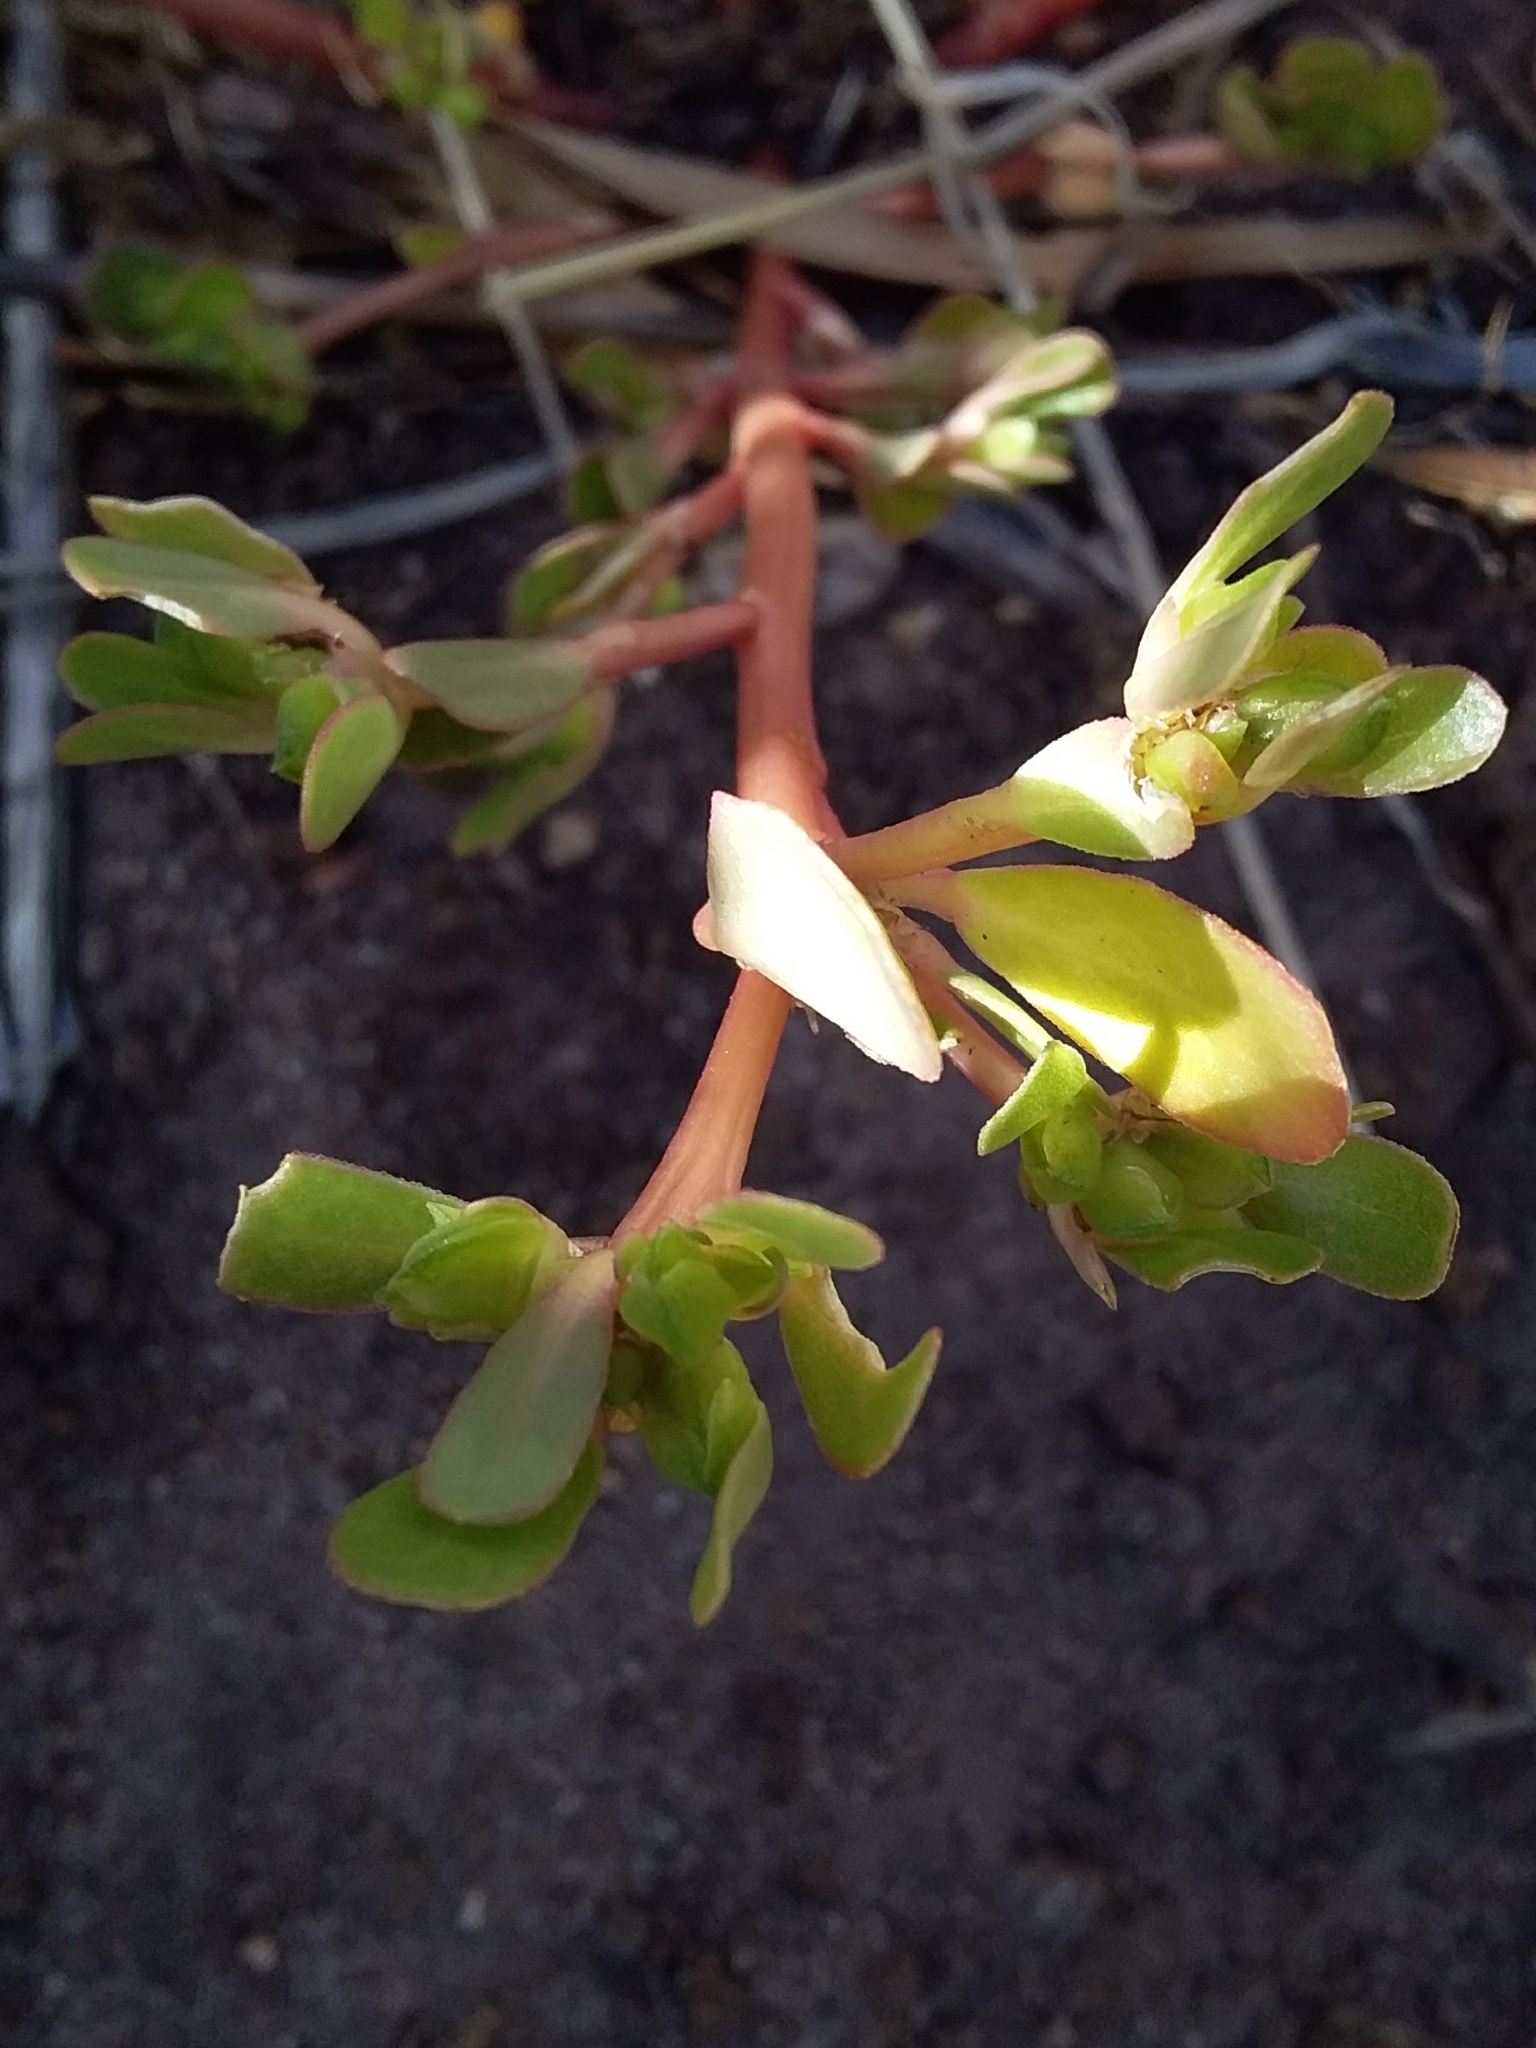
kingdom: Plantae
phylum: Tracheophyta
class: Magnoliopsida
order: Caryophyllales
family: Portulacaceae
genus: Portulaca
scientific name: Portulaca oleracea
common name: Common purslane
